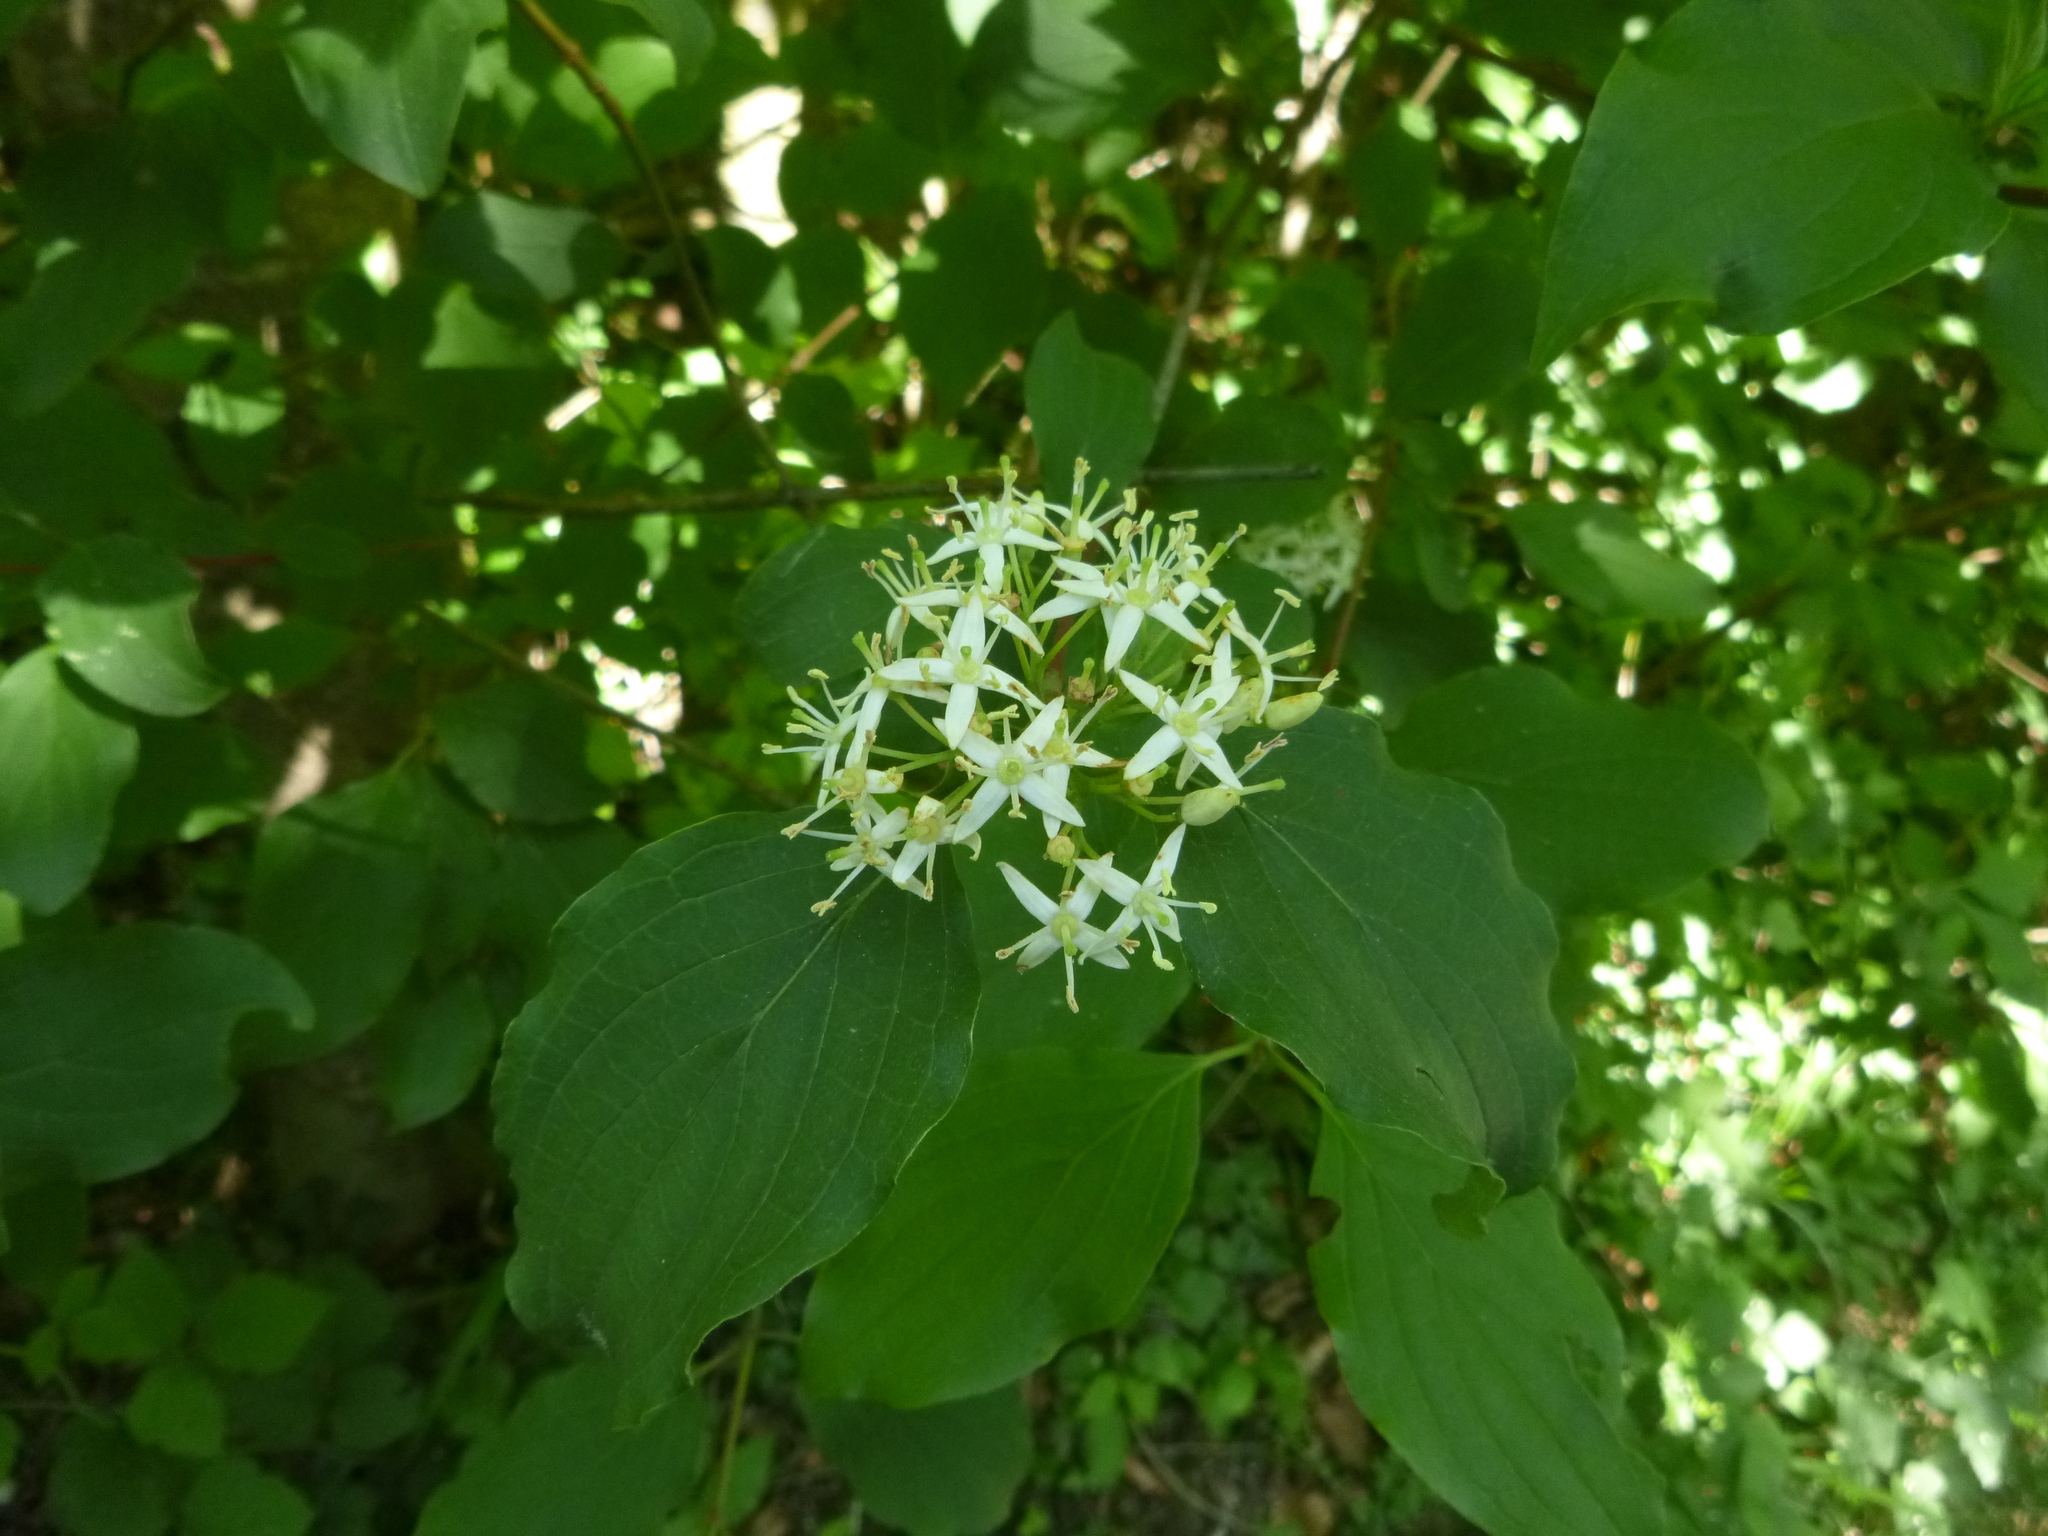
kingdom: Plantae
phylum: Tracheophyta
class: Magnoliopsida
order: Cornales
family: Cornaceae
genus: Cornus
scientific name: Cornus sanguinea
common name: Dogwood
